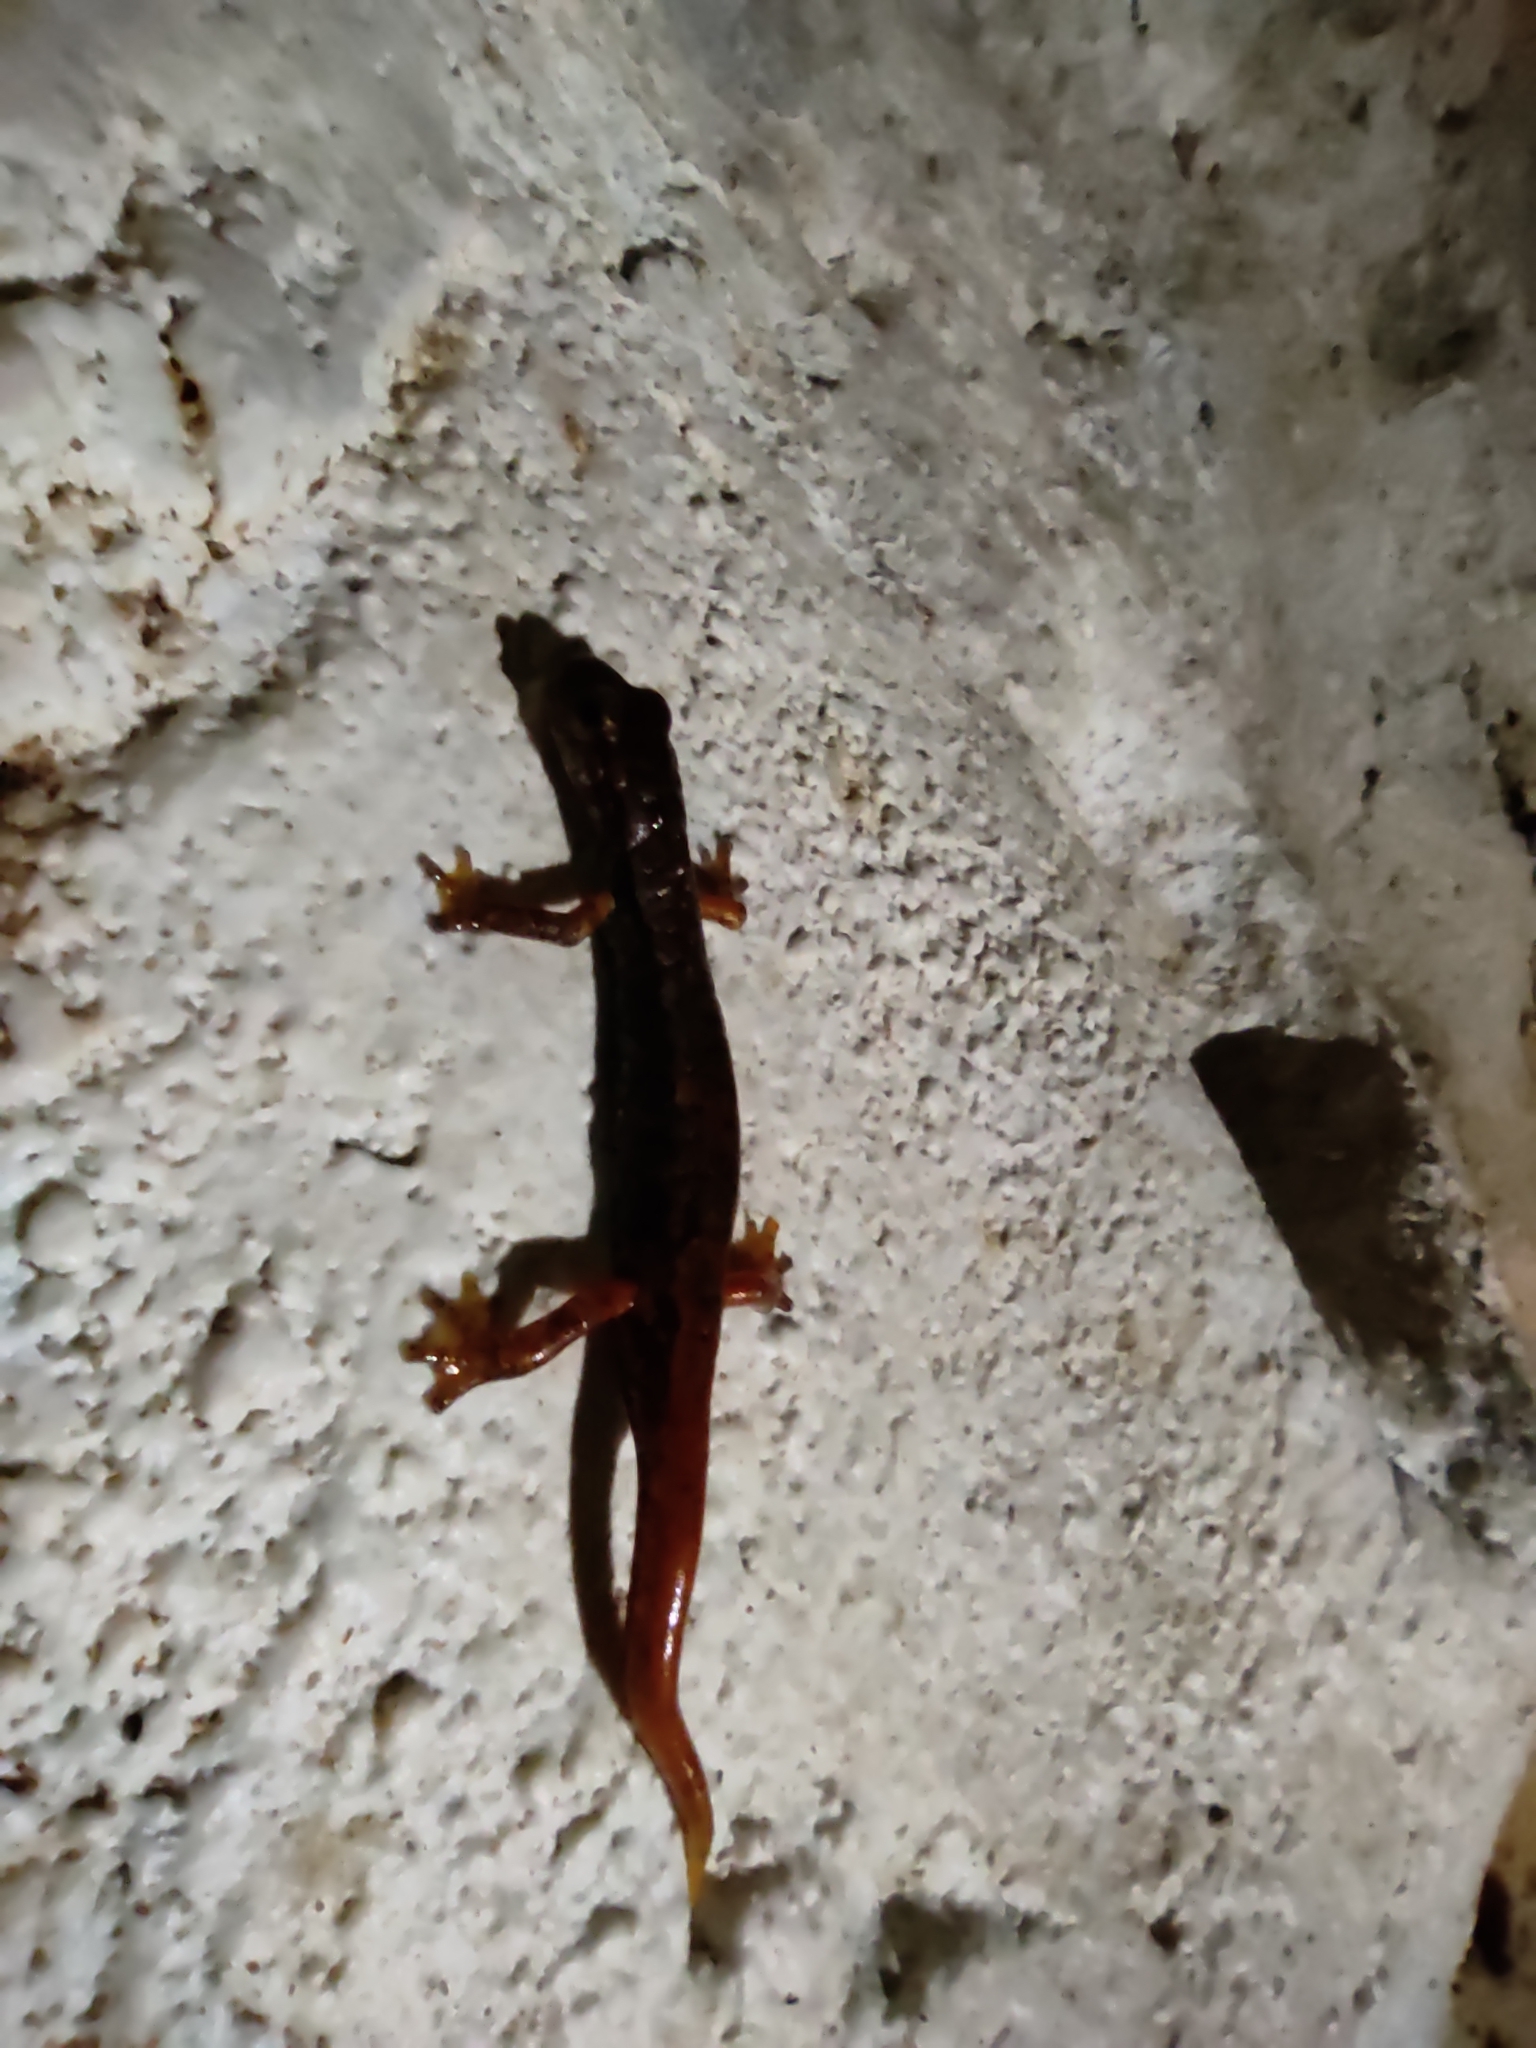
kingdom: Animalia
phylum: Chordata
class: Amphibia
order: Caudata
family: Plethodontidae
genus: Speleomantes
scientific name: Speleomantes italicus
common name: Italian cave salamander
